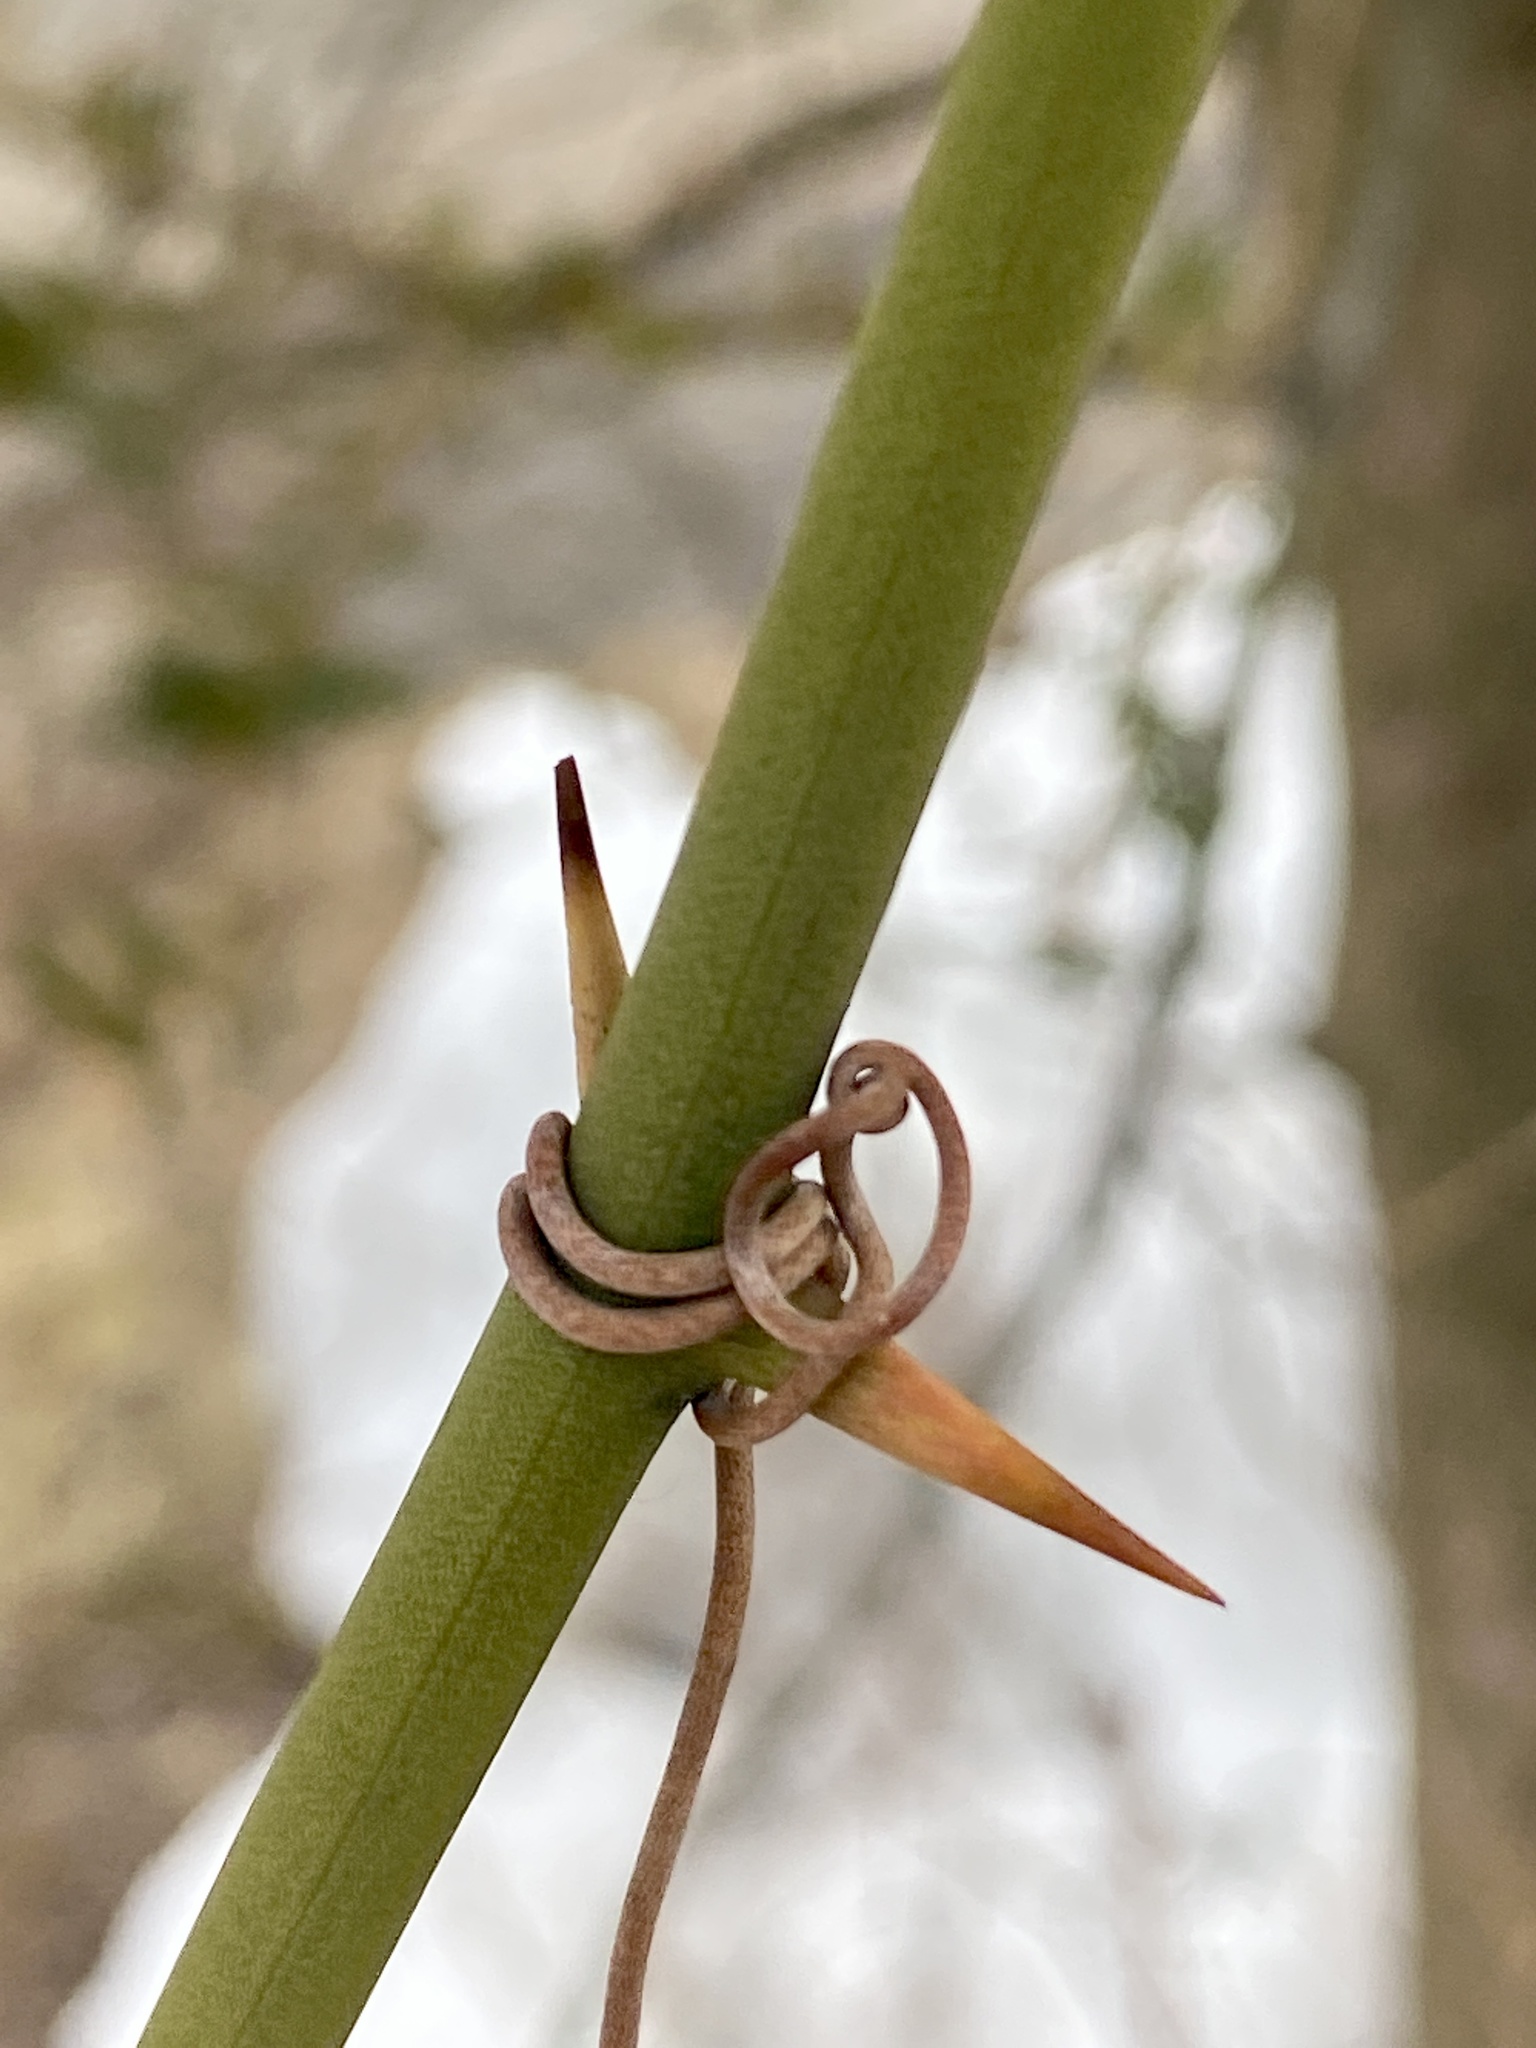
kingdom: Plantae
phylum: Tracheophyta
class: Liliopsida
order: Liliales
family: Smilacaceae
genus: Smilax
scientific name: Smilax rotundifolia
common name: Bullbriar
